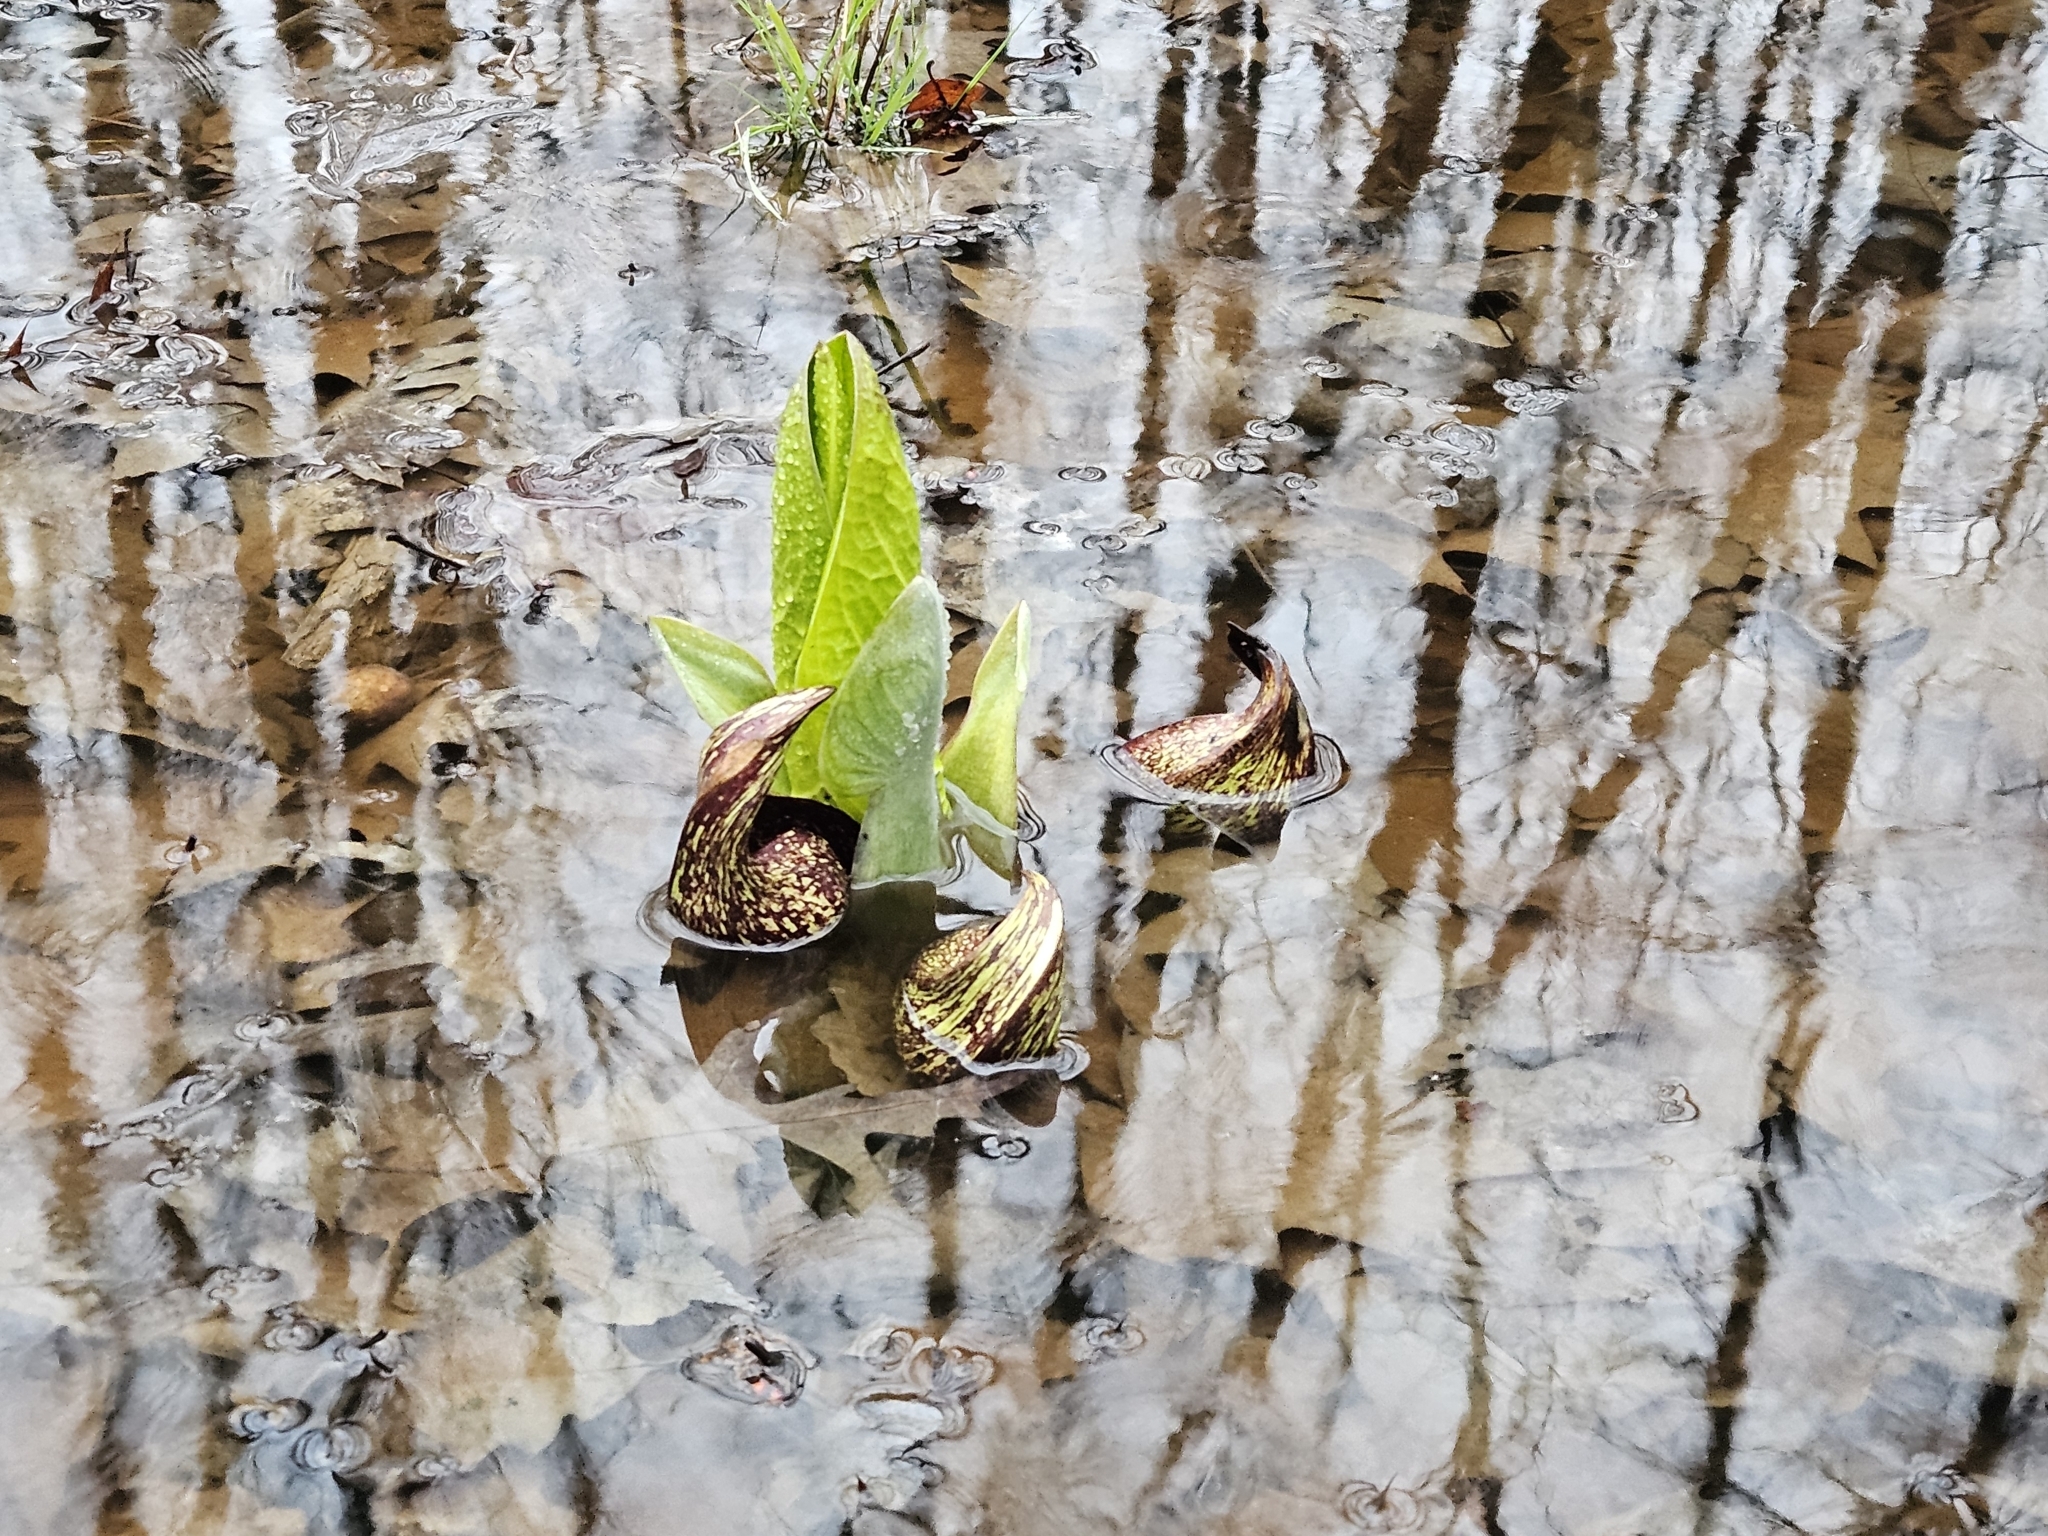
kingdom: Plantae
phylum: Tracheophyta
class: Liliopsida
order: Alismatales
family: Araceae
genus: Symplocarpus
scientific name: Symplocarpus foetidus
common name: Eastern skunk cabbage
